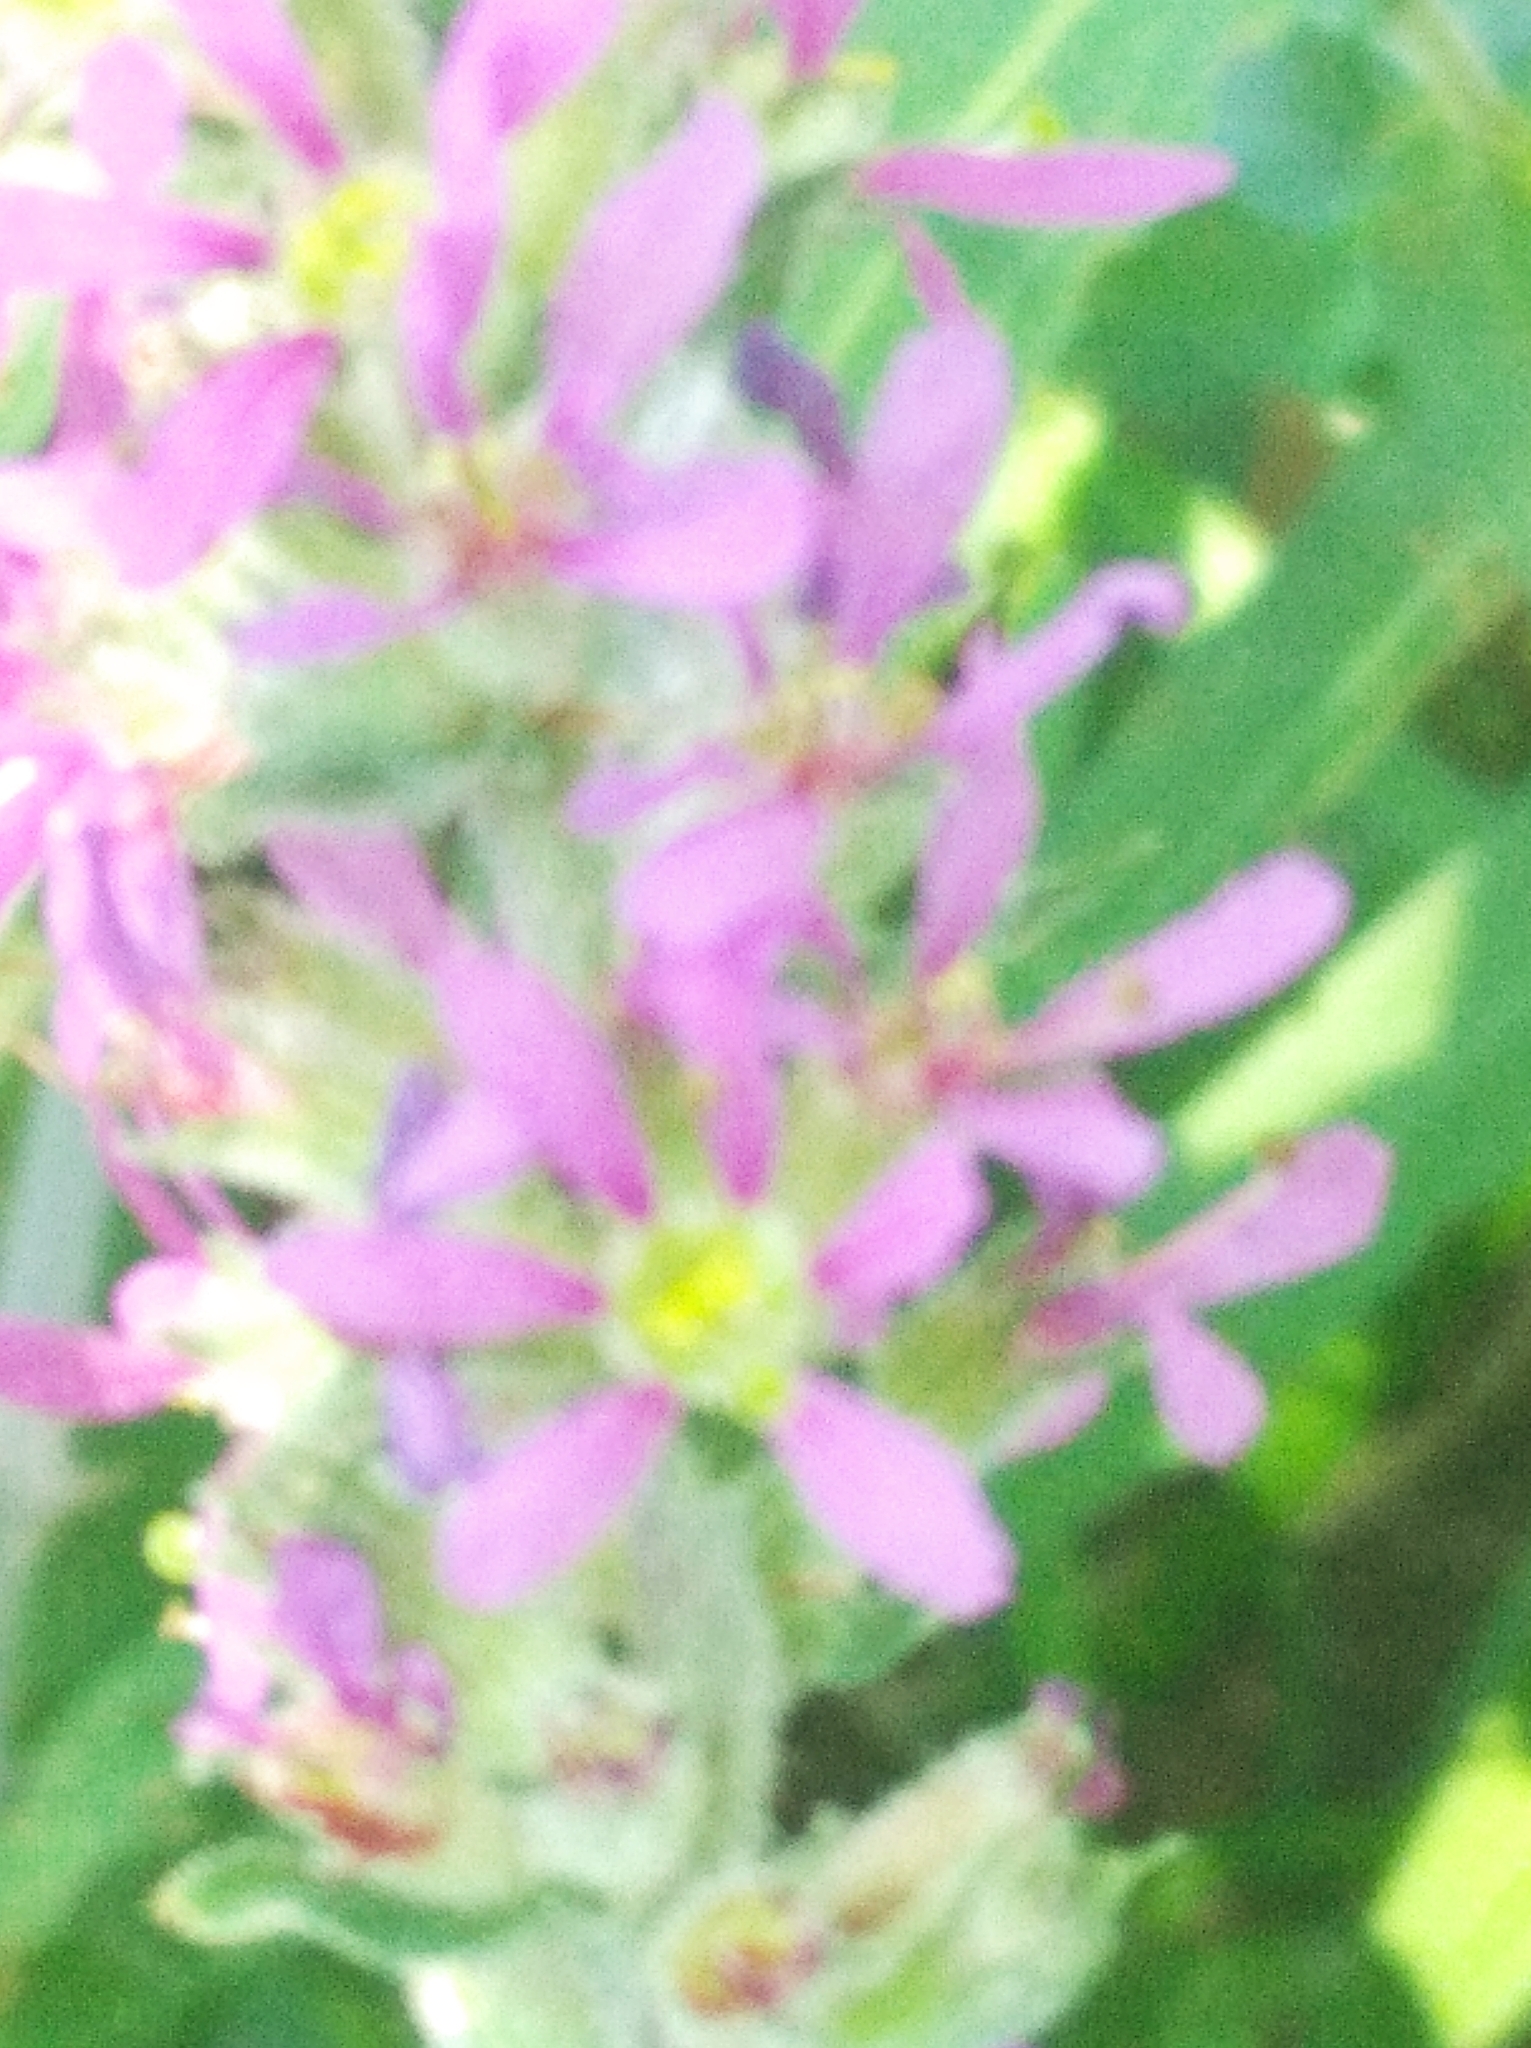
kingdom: Plantae
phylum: Tracheophyta
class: Magnoliopsida
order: Myrtales
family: Lythraceae
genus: Lythrum
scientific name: Lythrum salicaria
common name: Purple loosestrife
